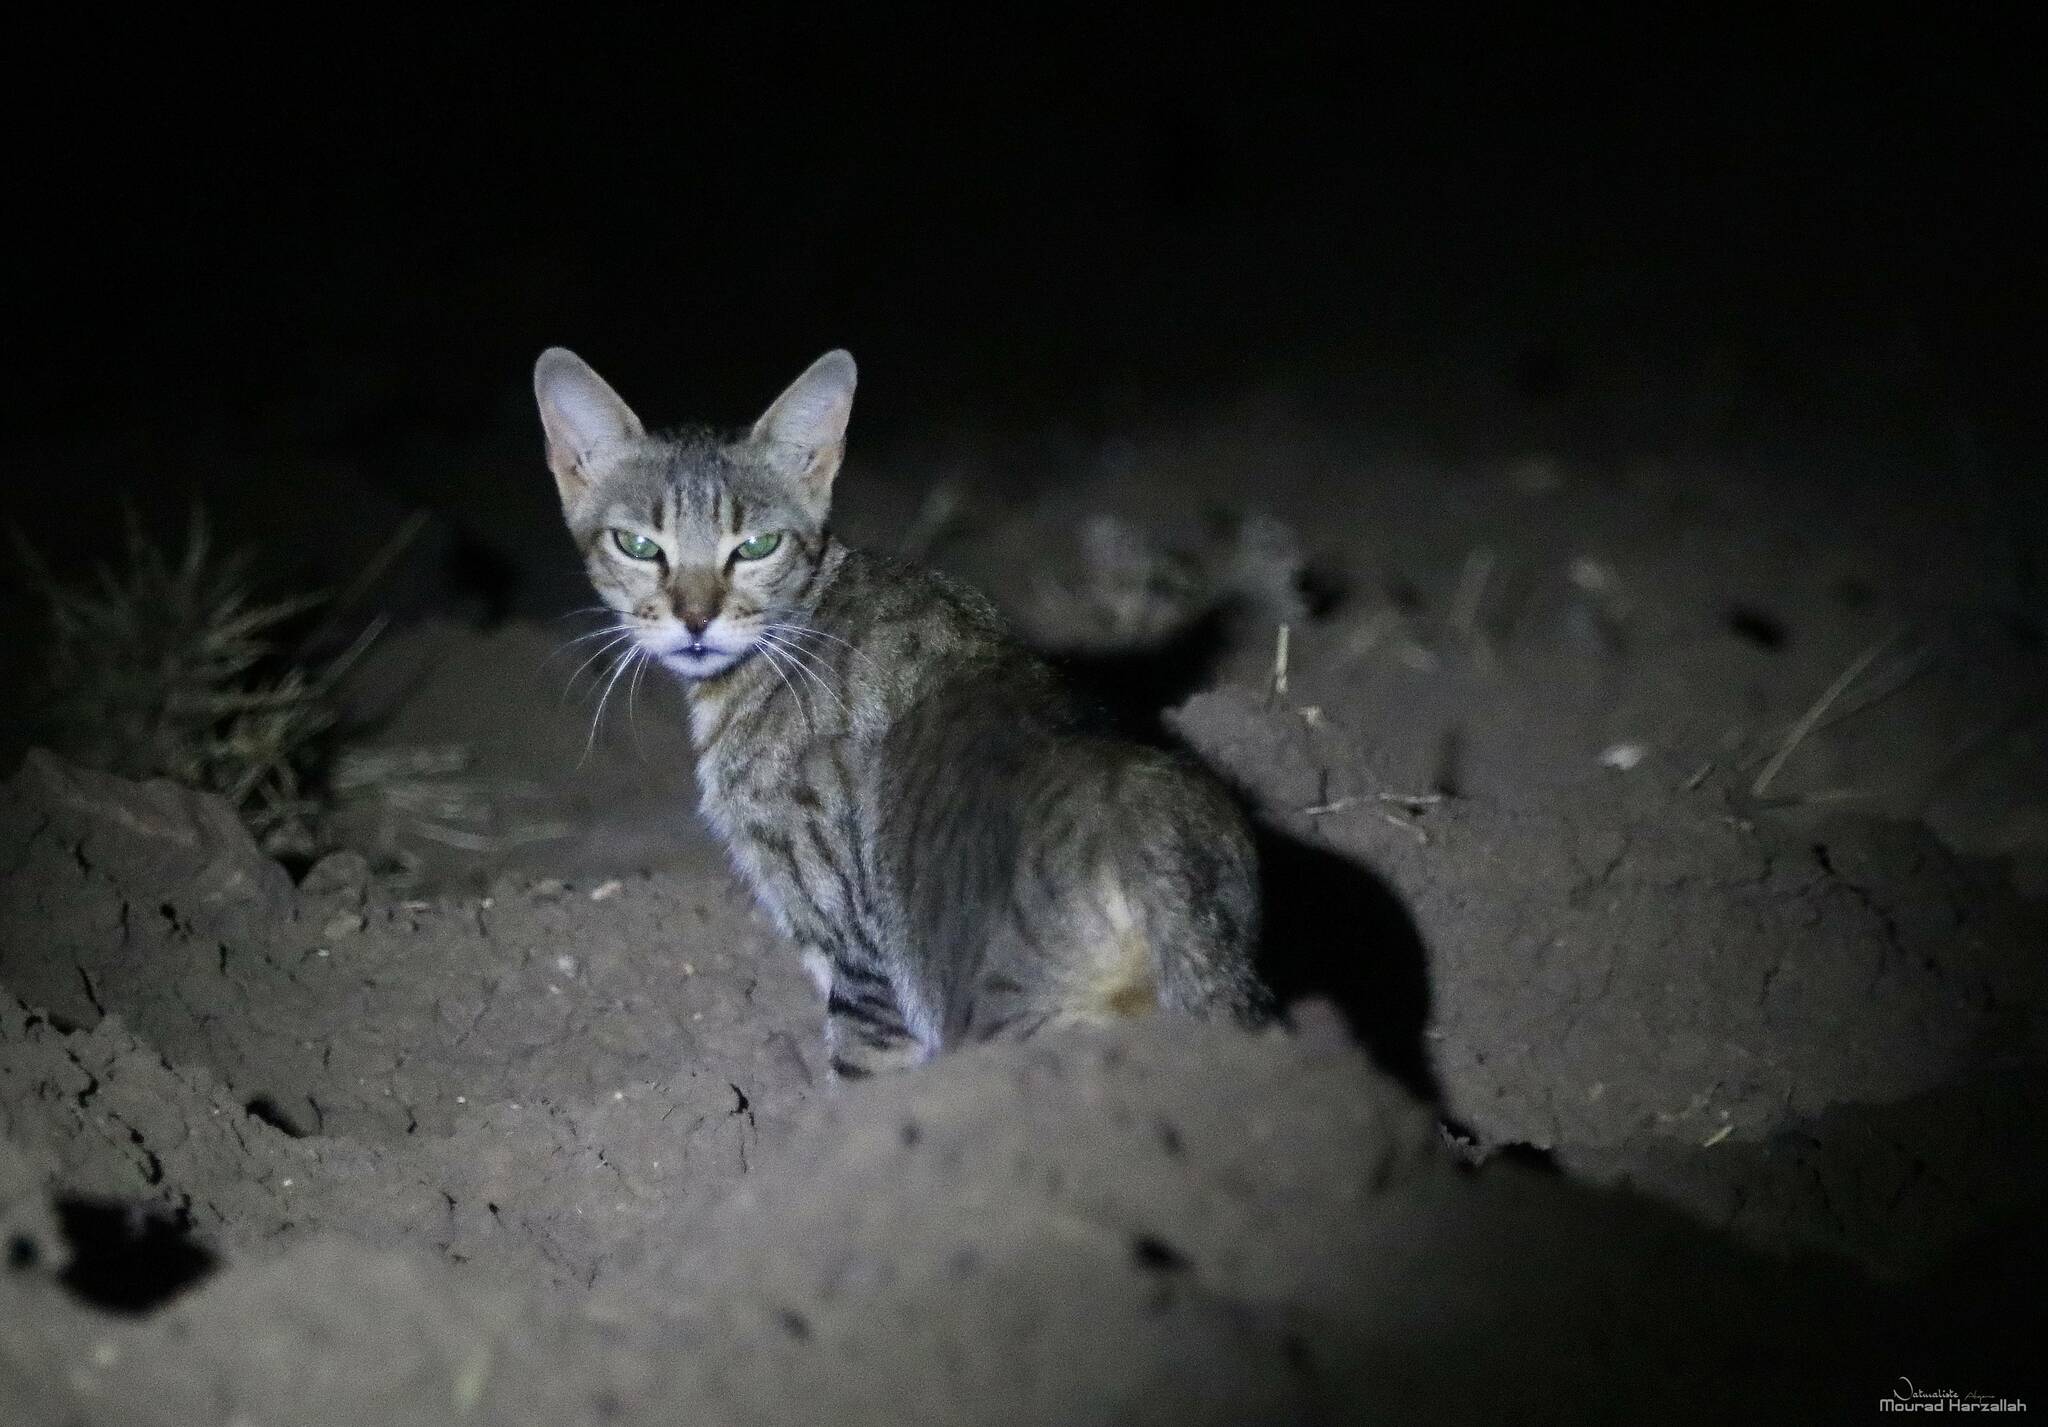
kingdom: Animalia
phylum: Chordata
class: Mammalia
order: Carnivora
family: Felidae
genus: Felis
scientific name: Felis catus
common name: Domestic cat
